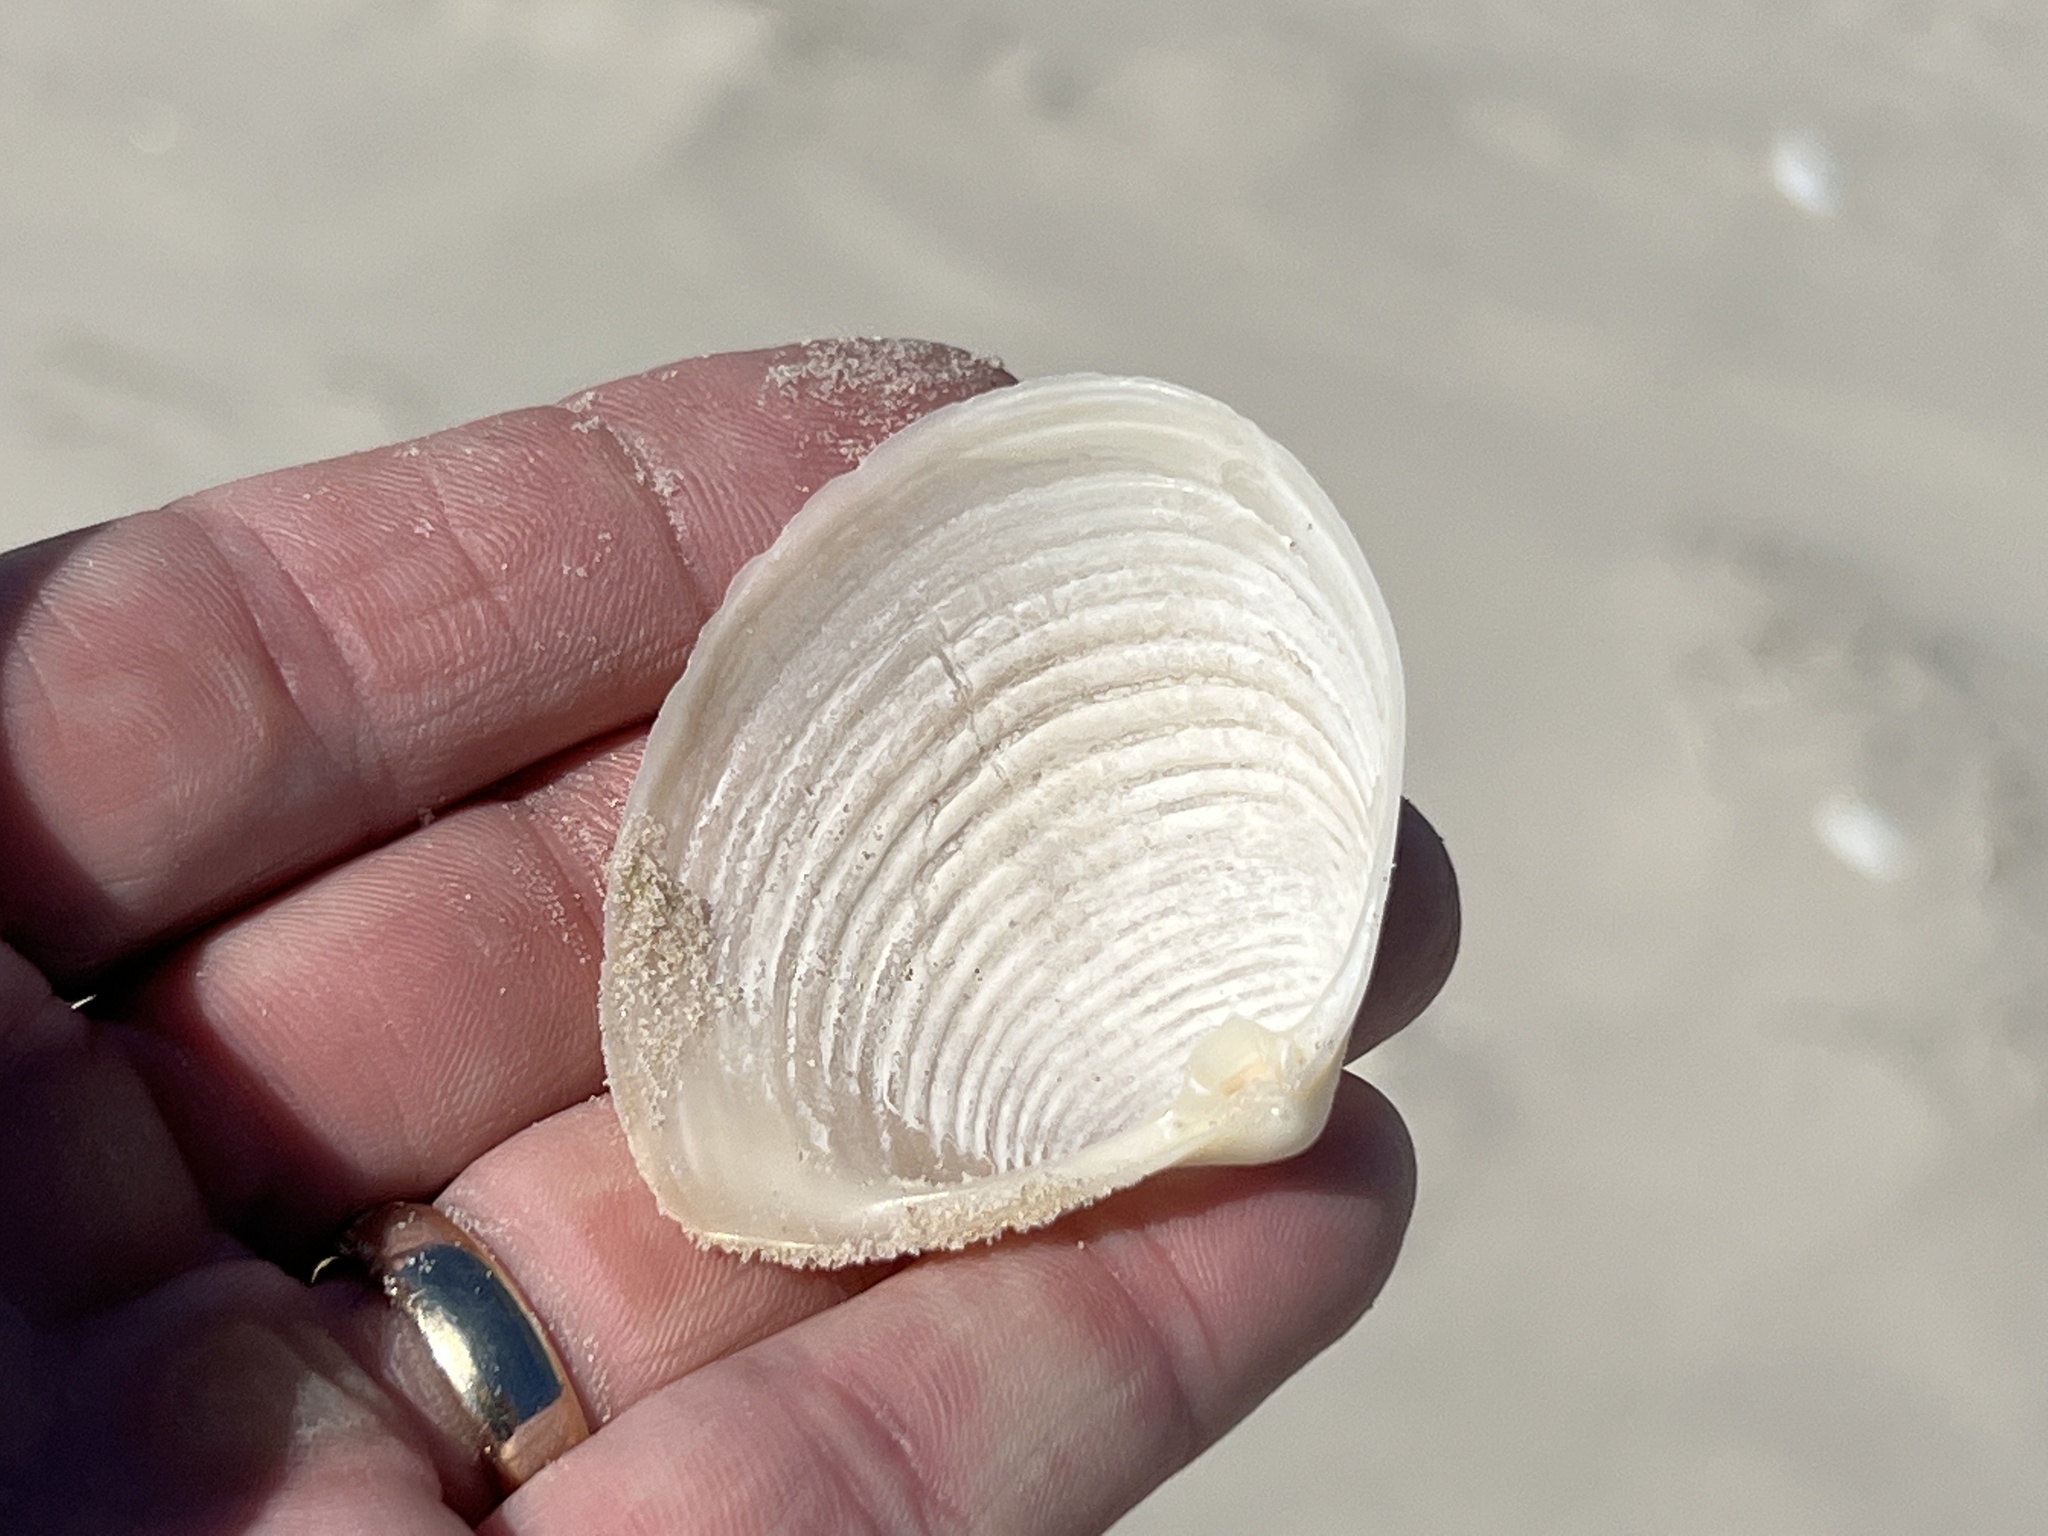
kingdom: Animalia
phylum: Mollusca
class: Bivalvia
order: Venerida
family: Anatinellidae
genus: Raeta
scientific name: Raeta plicatella
